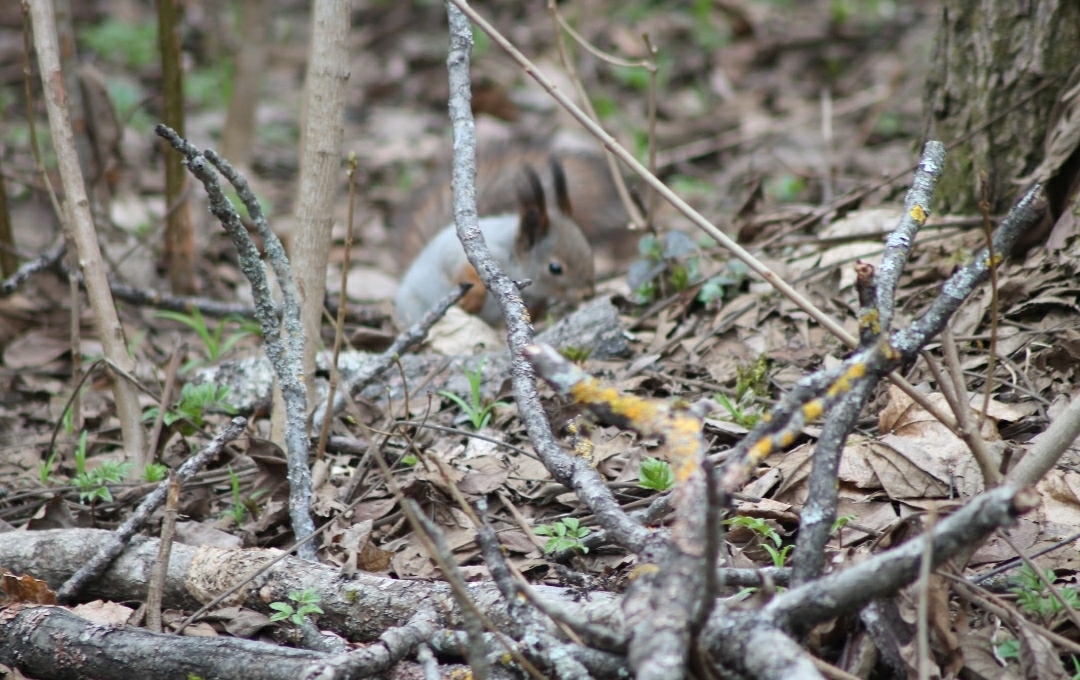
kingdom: Animalia
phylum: Chordata
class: Mammalia
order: Rodentia
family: Sciuridae
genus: Sciurus
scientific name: Sciurus vulgaris
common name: Eurasian red squirrel
